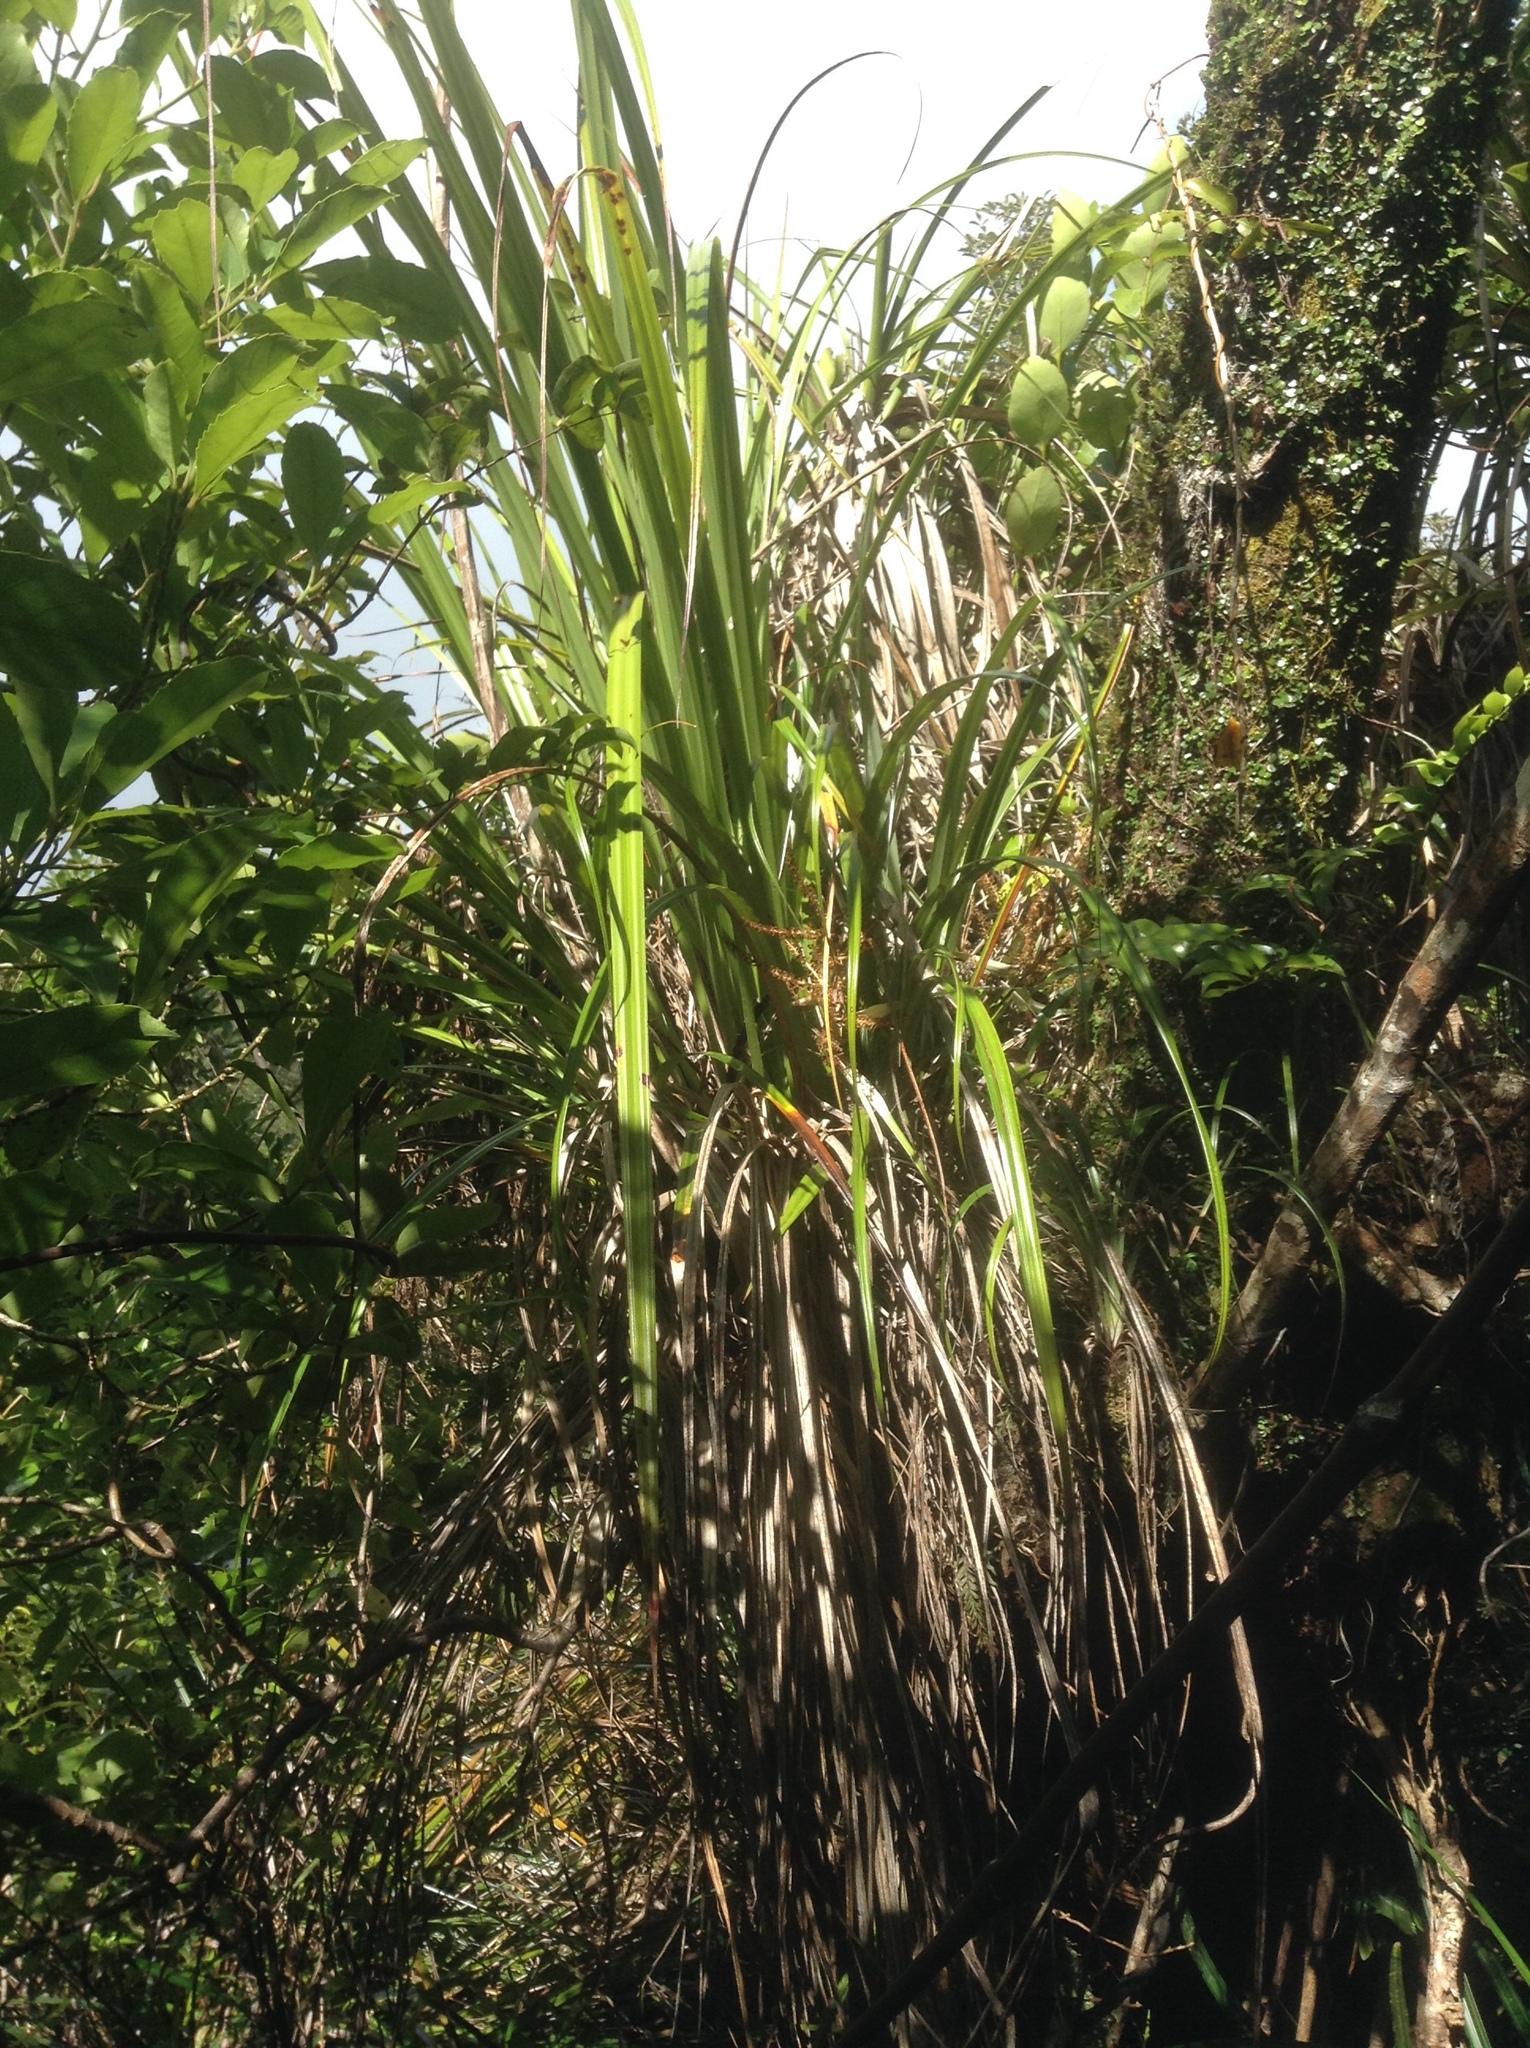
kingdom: Plantae
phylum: Tracheophyta
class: Liliopsida
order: Asparagales
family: Asteliaceae
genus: Astelia
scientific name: Astelia trinervia
